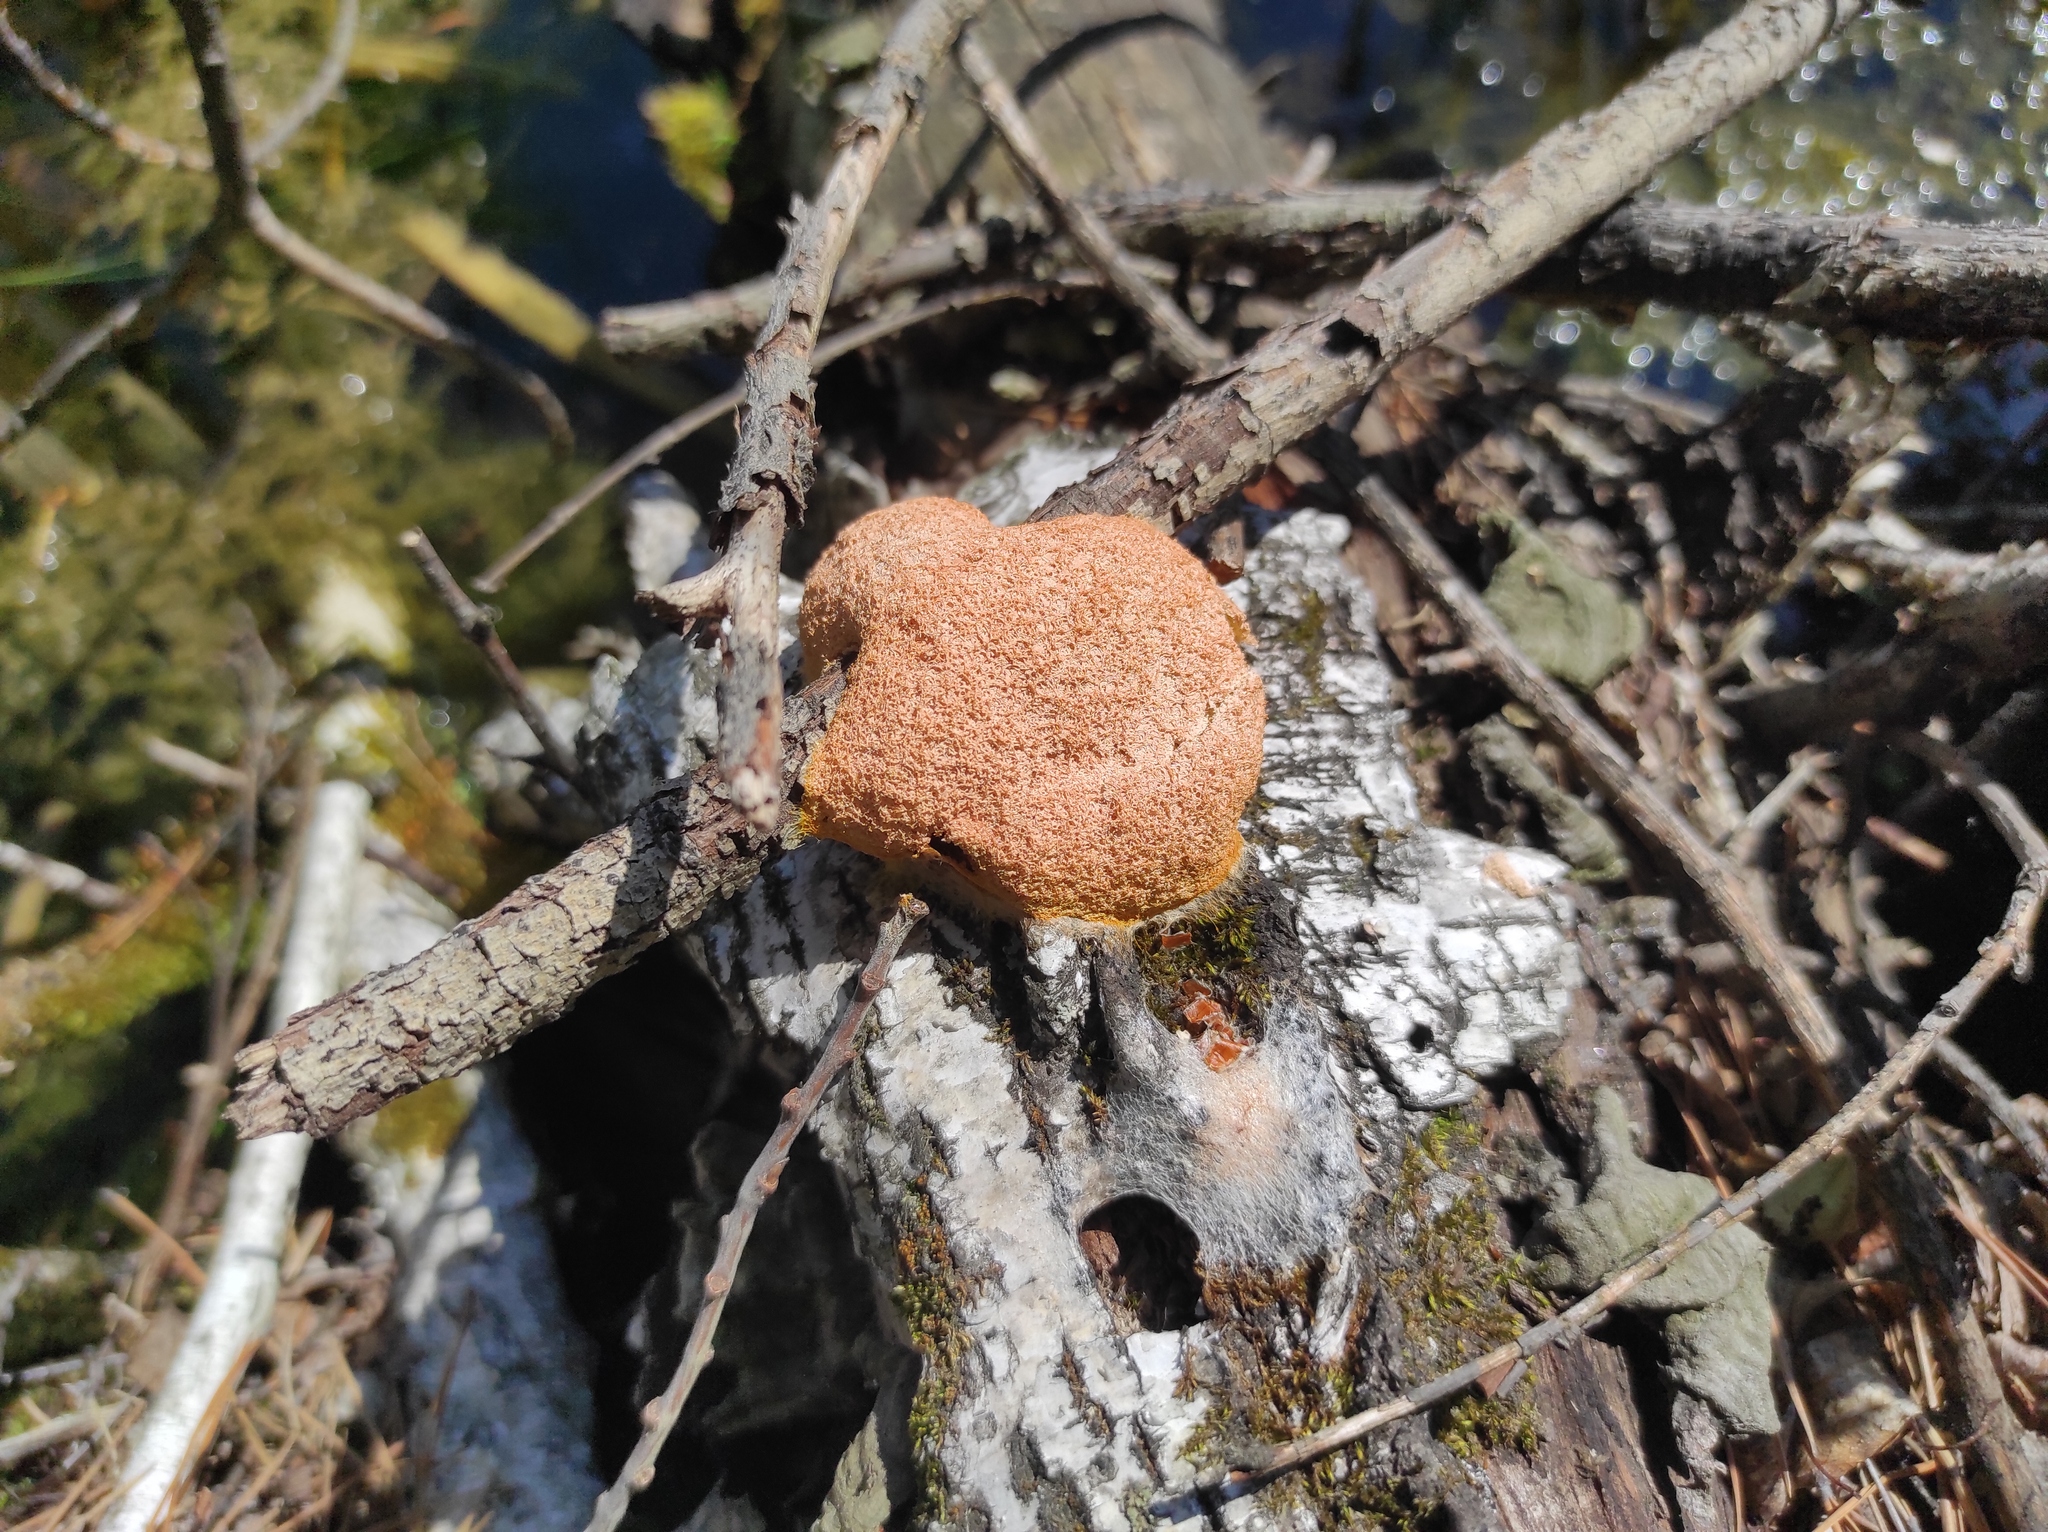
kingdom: Protozoa
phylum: Mycetozoa
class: Myxomycetes
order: Physarales
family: Physaraceae
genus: Fuligo
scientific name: Fuligo septica
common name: Dog vomit slime mold
